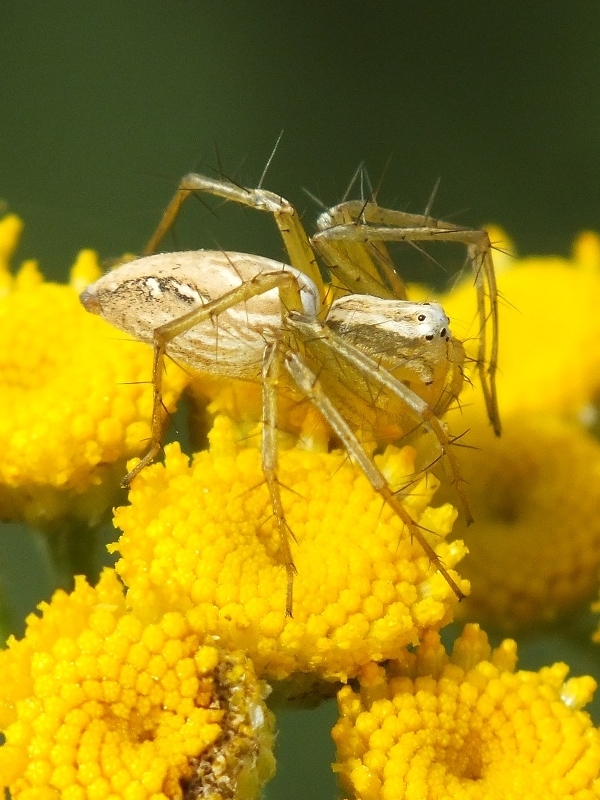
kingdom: Animalia
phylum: Arthropoda
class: Arachnida
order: Araneae
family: Oxyopidae
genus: Oxyopes
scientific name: Oxyopes lineatus
